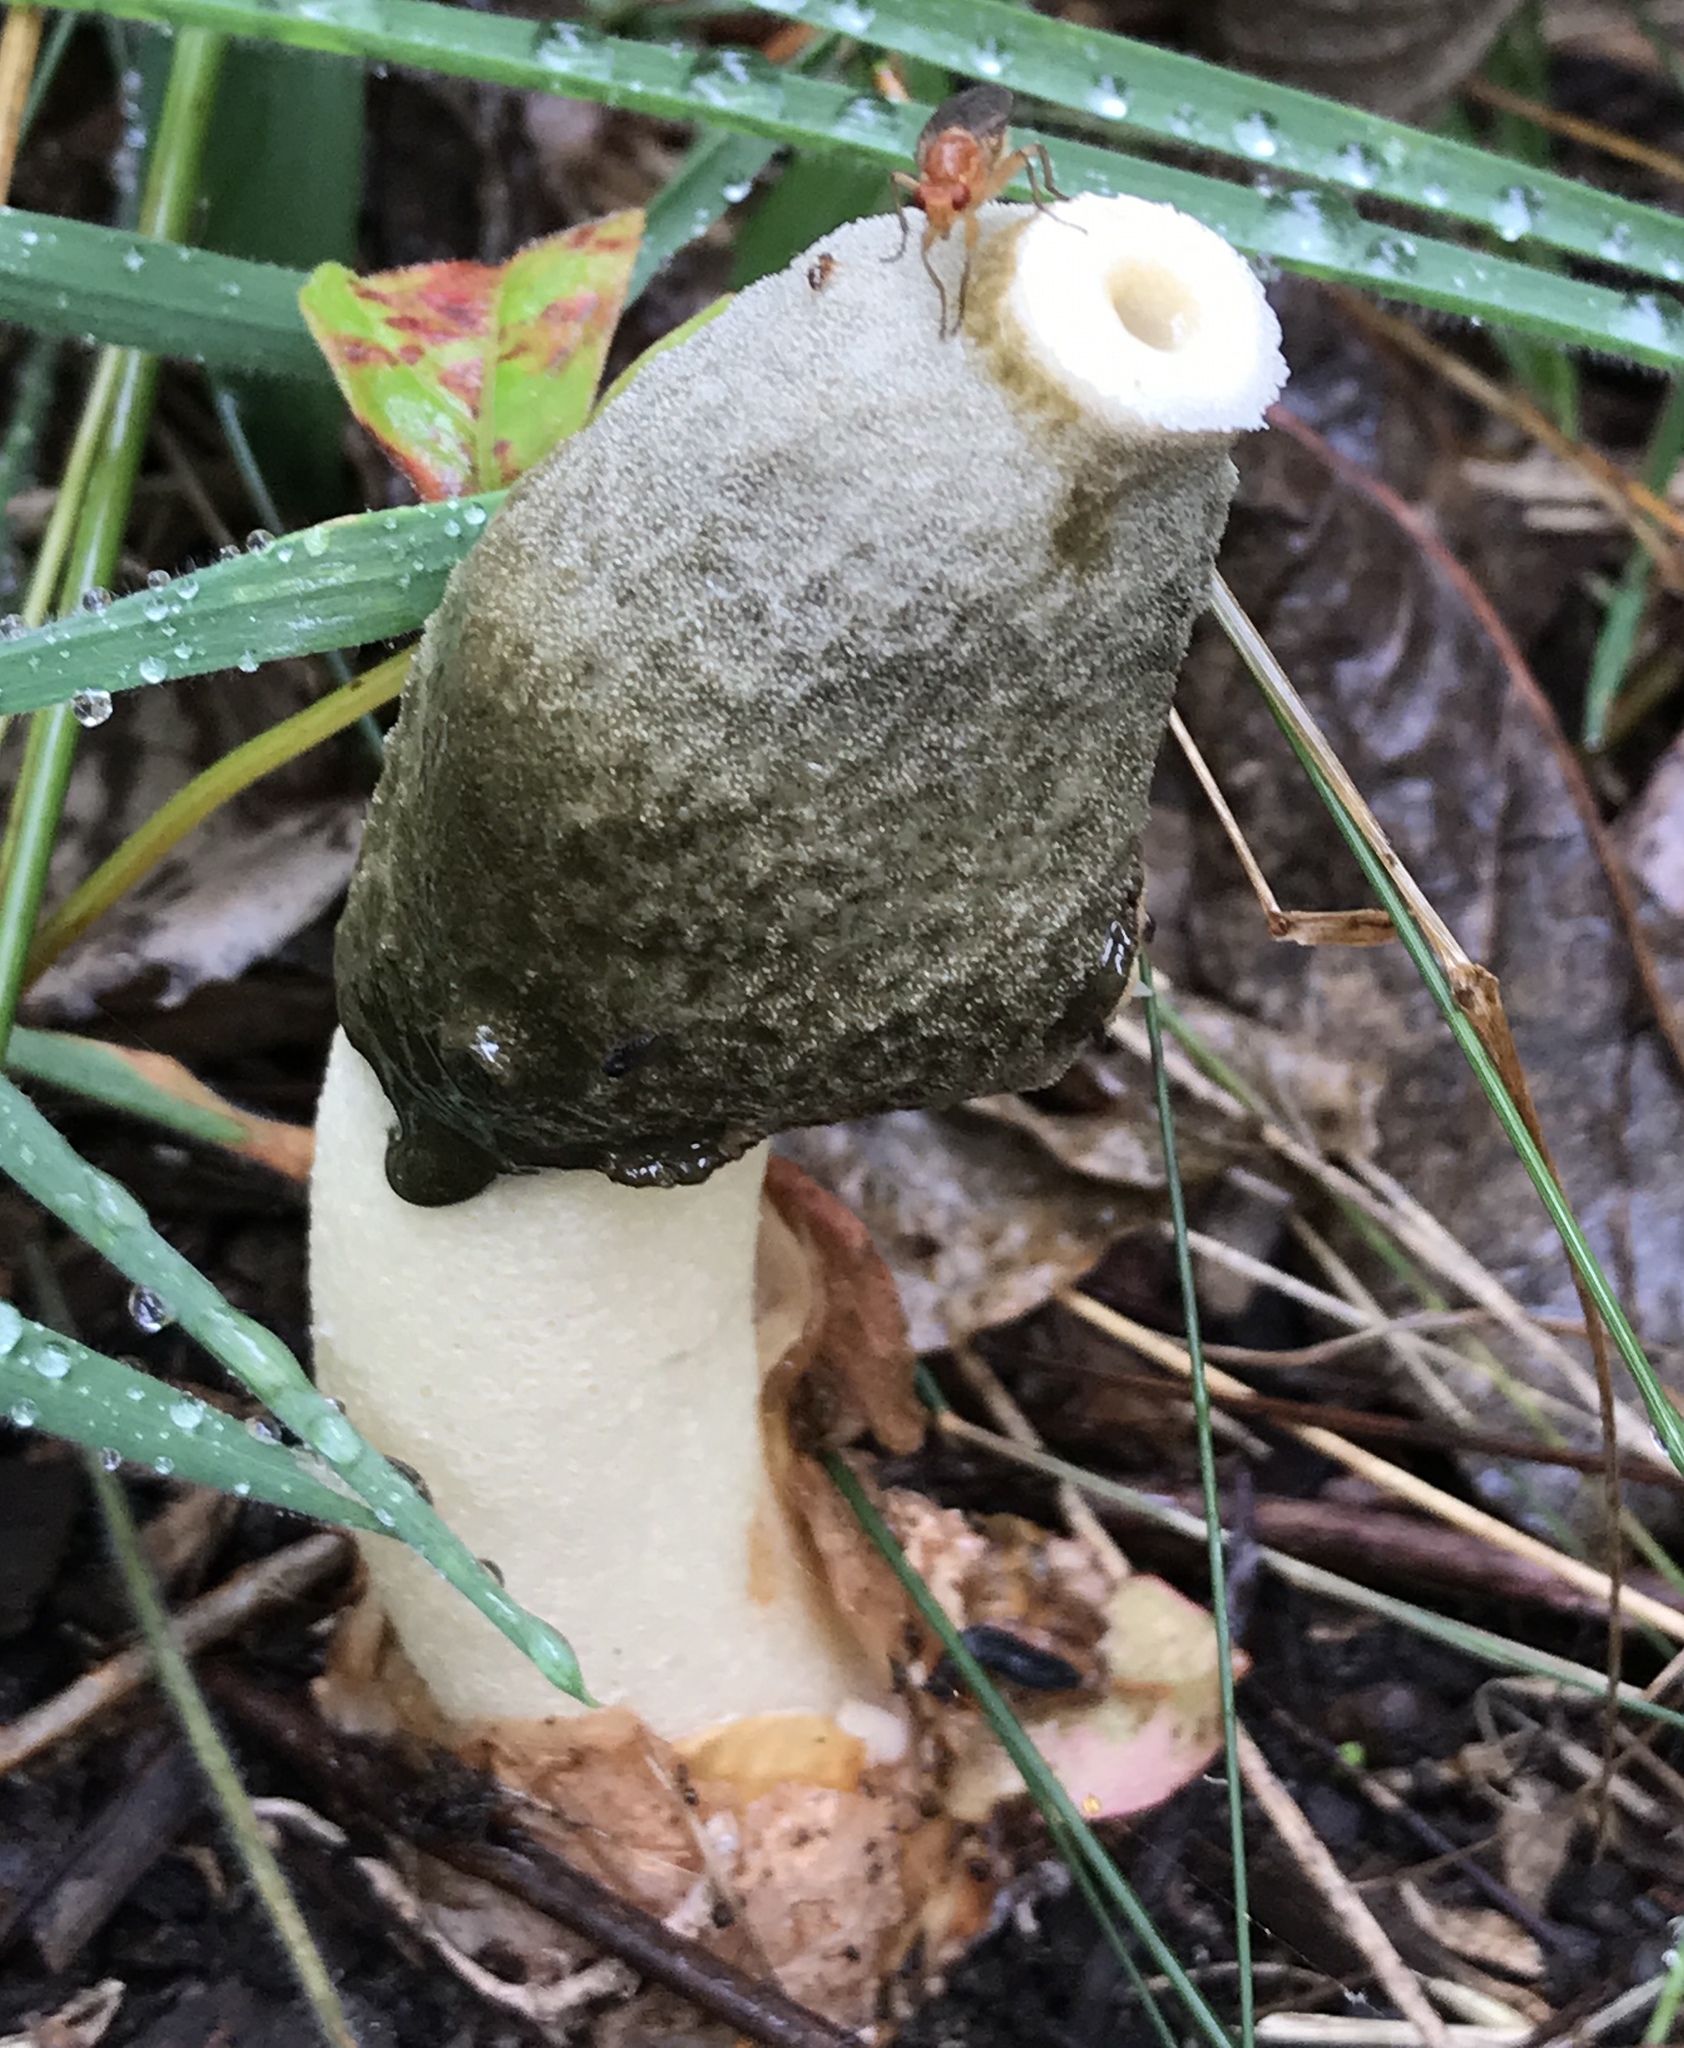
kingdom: Fungi
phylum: Basidiomycota
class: Agaricomycetes
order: Phallales
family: Phallaceae
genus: Phallus
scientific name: Phallus ravenelii
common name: Ravenel's stinkhorn
